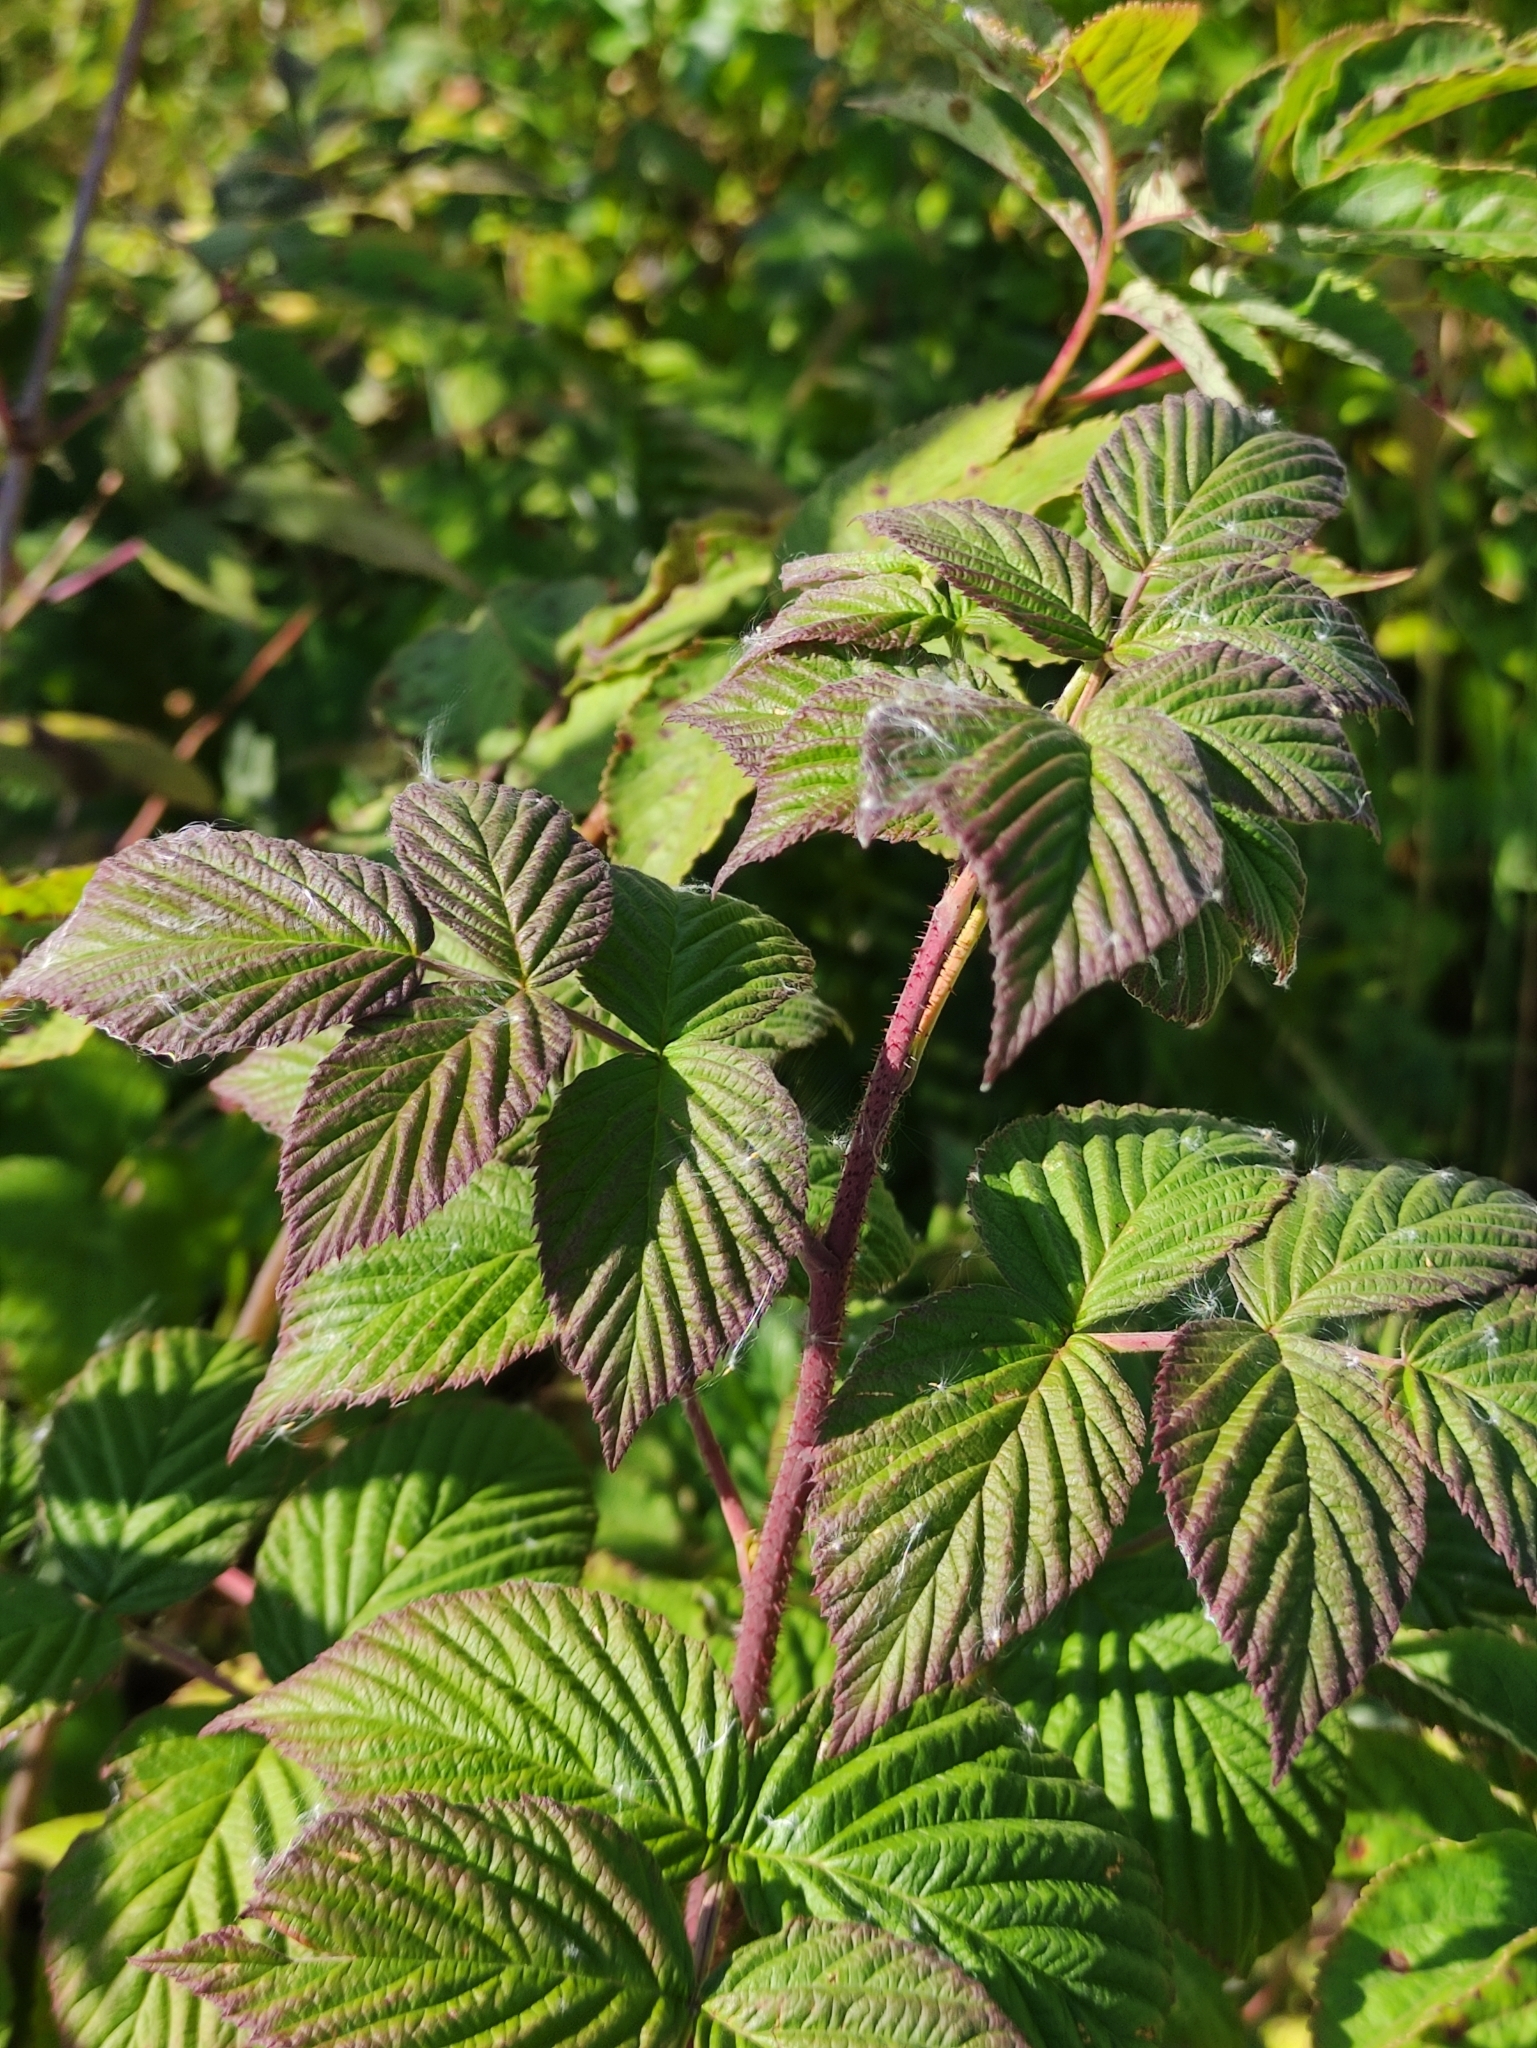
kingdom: Plantae
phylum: Tracheophyta
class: Magnoliopsida
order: Rosales
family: Rosaceae
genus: Rubus
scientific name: Rubus idaeus
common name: Raspberry
